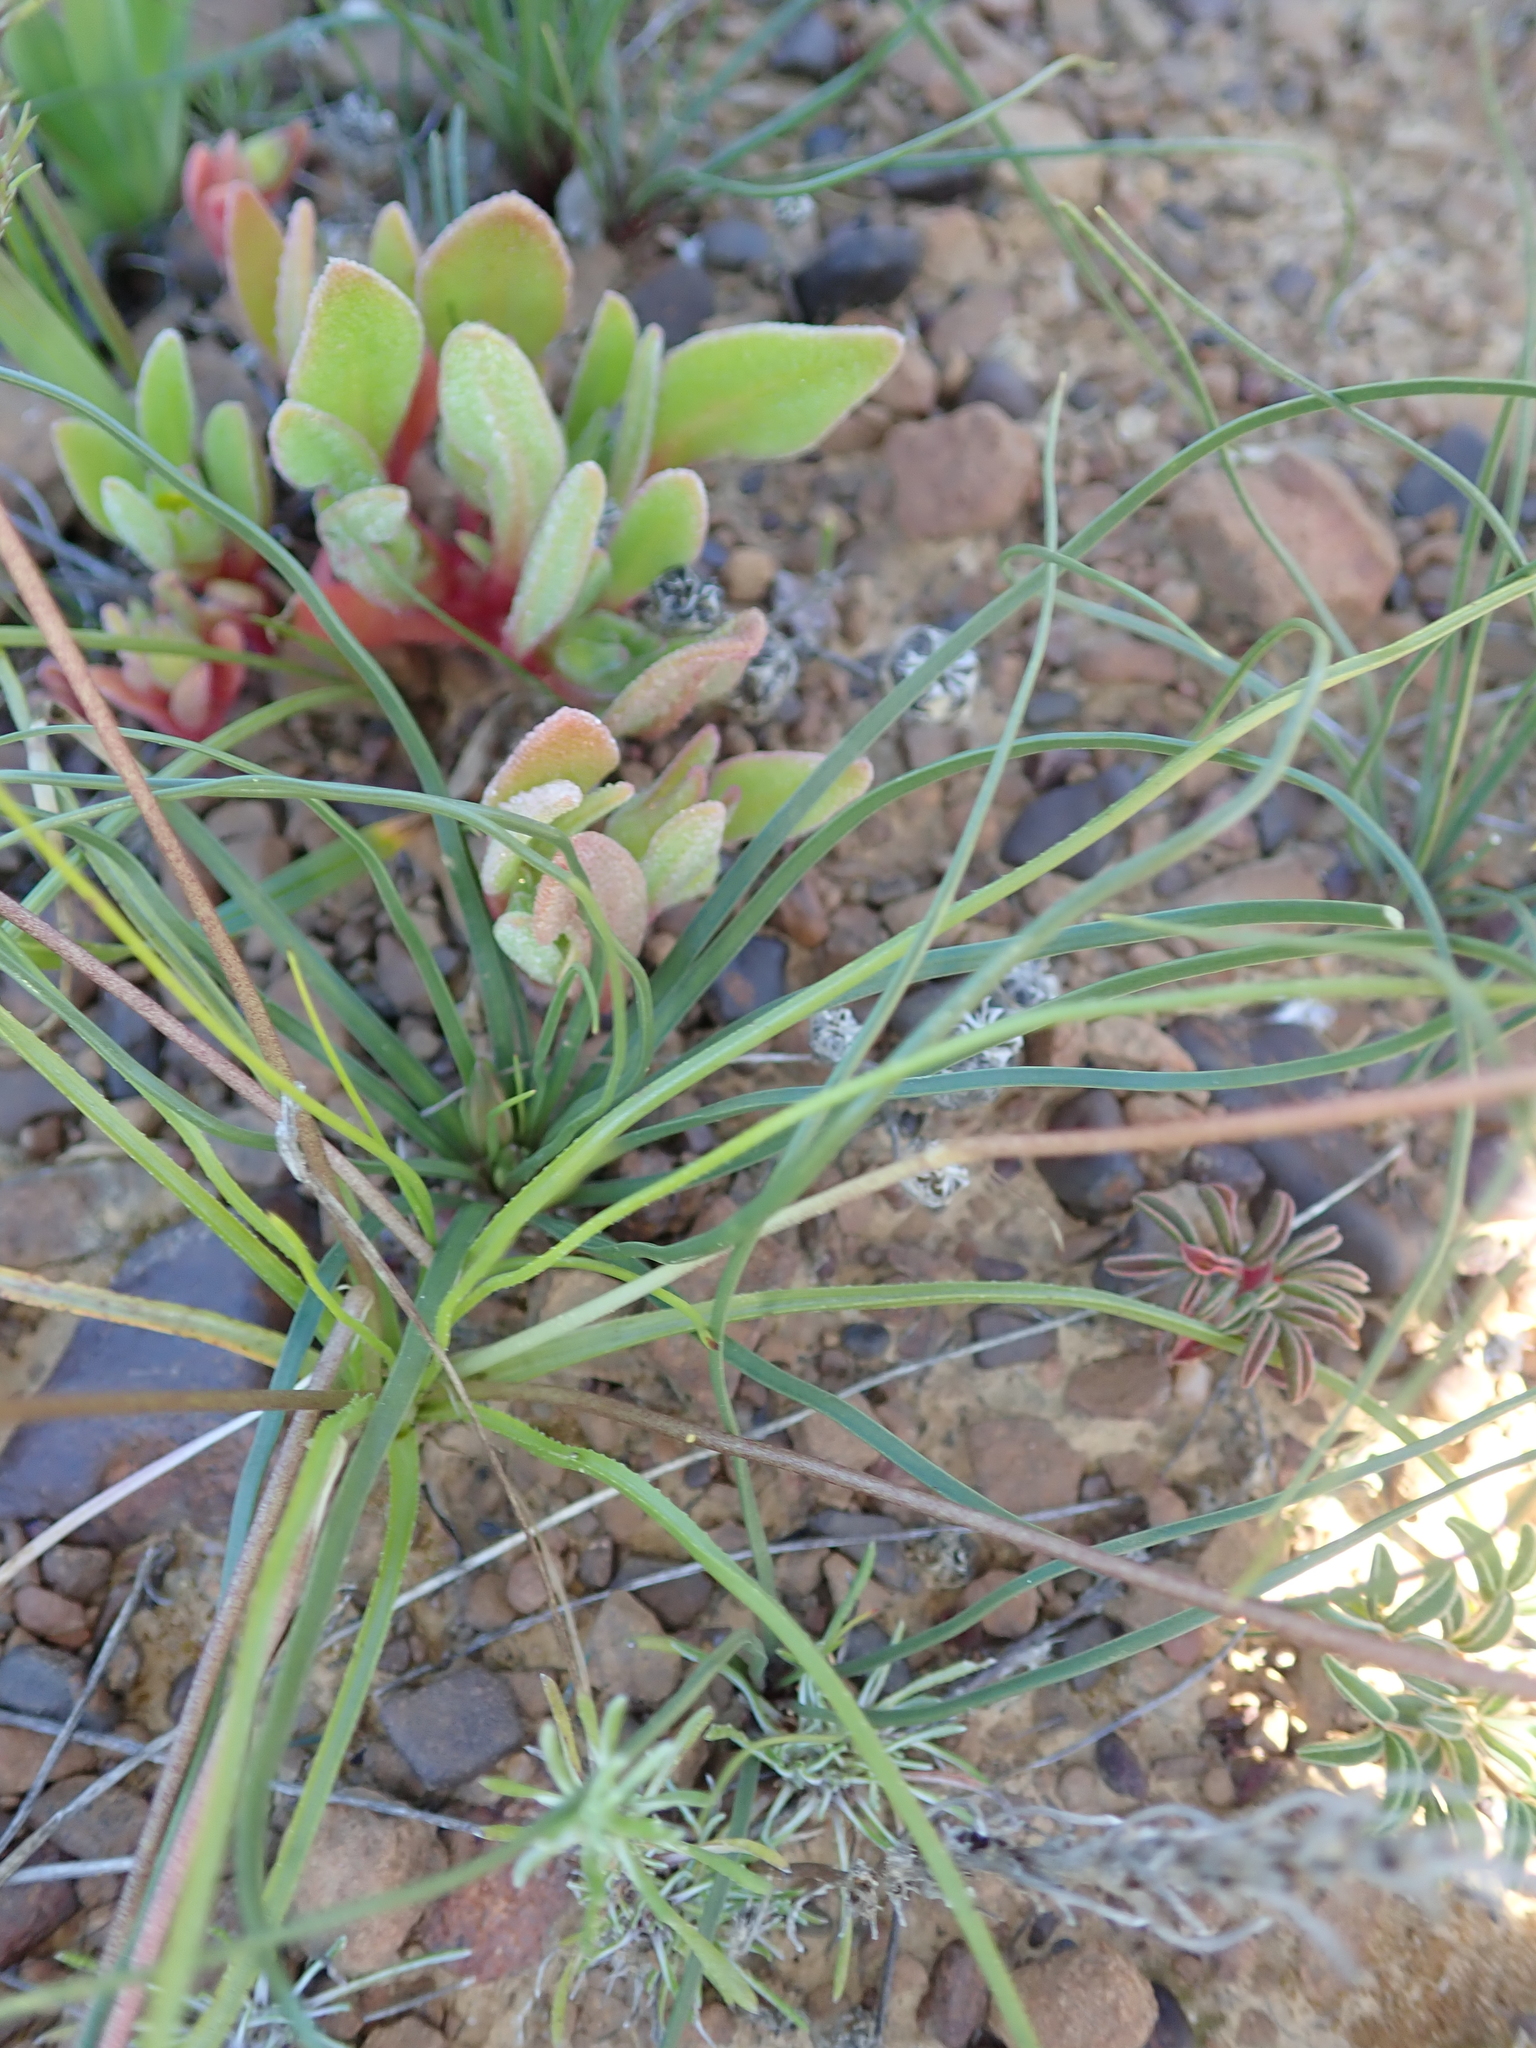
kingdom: Plantae
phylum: Tracheophyta
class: Liliopsida
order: Asparagales
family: Hypoxidaceae
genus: Pauridia
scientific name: Pauridia serrata
